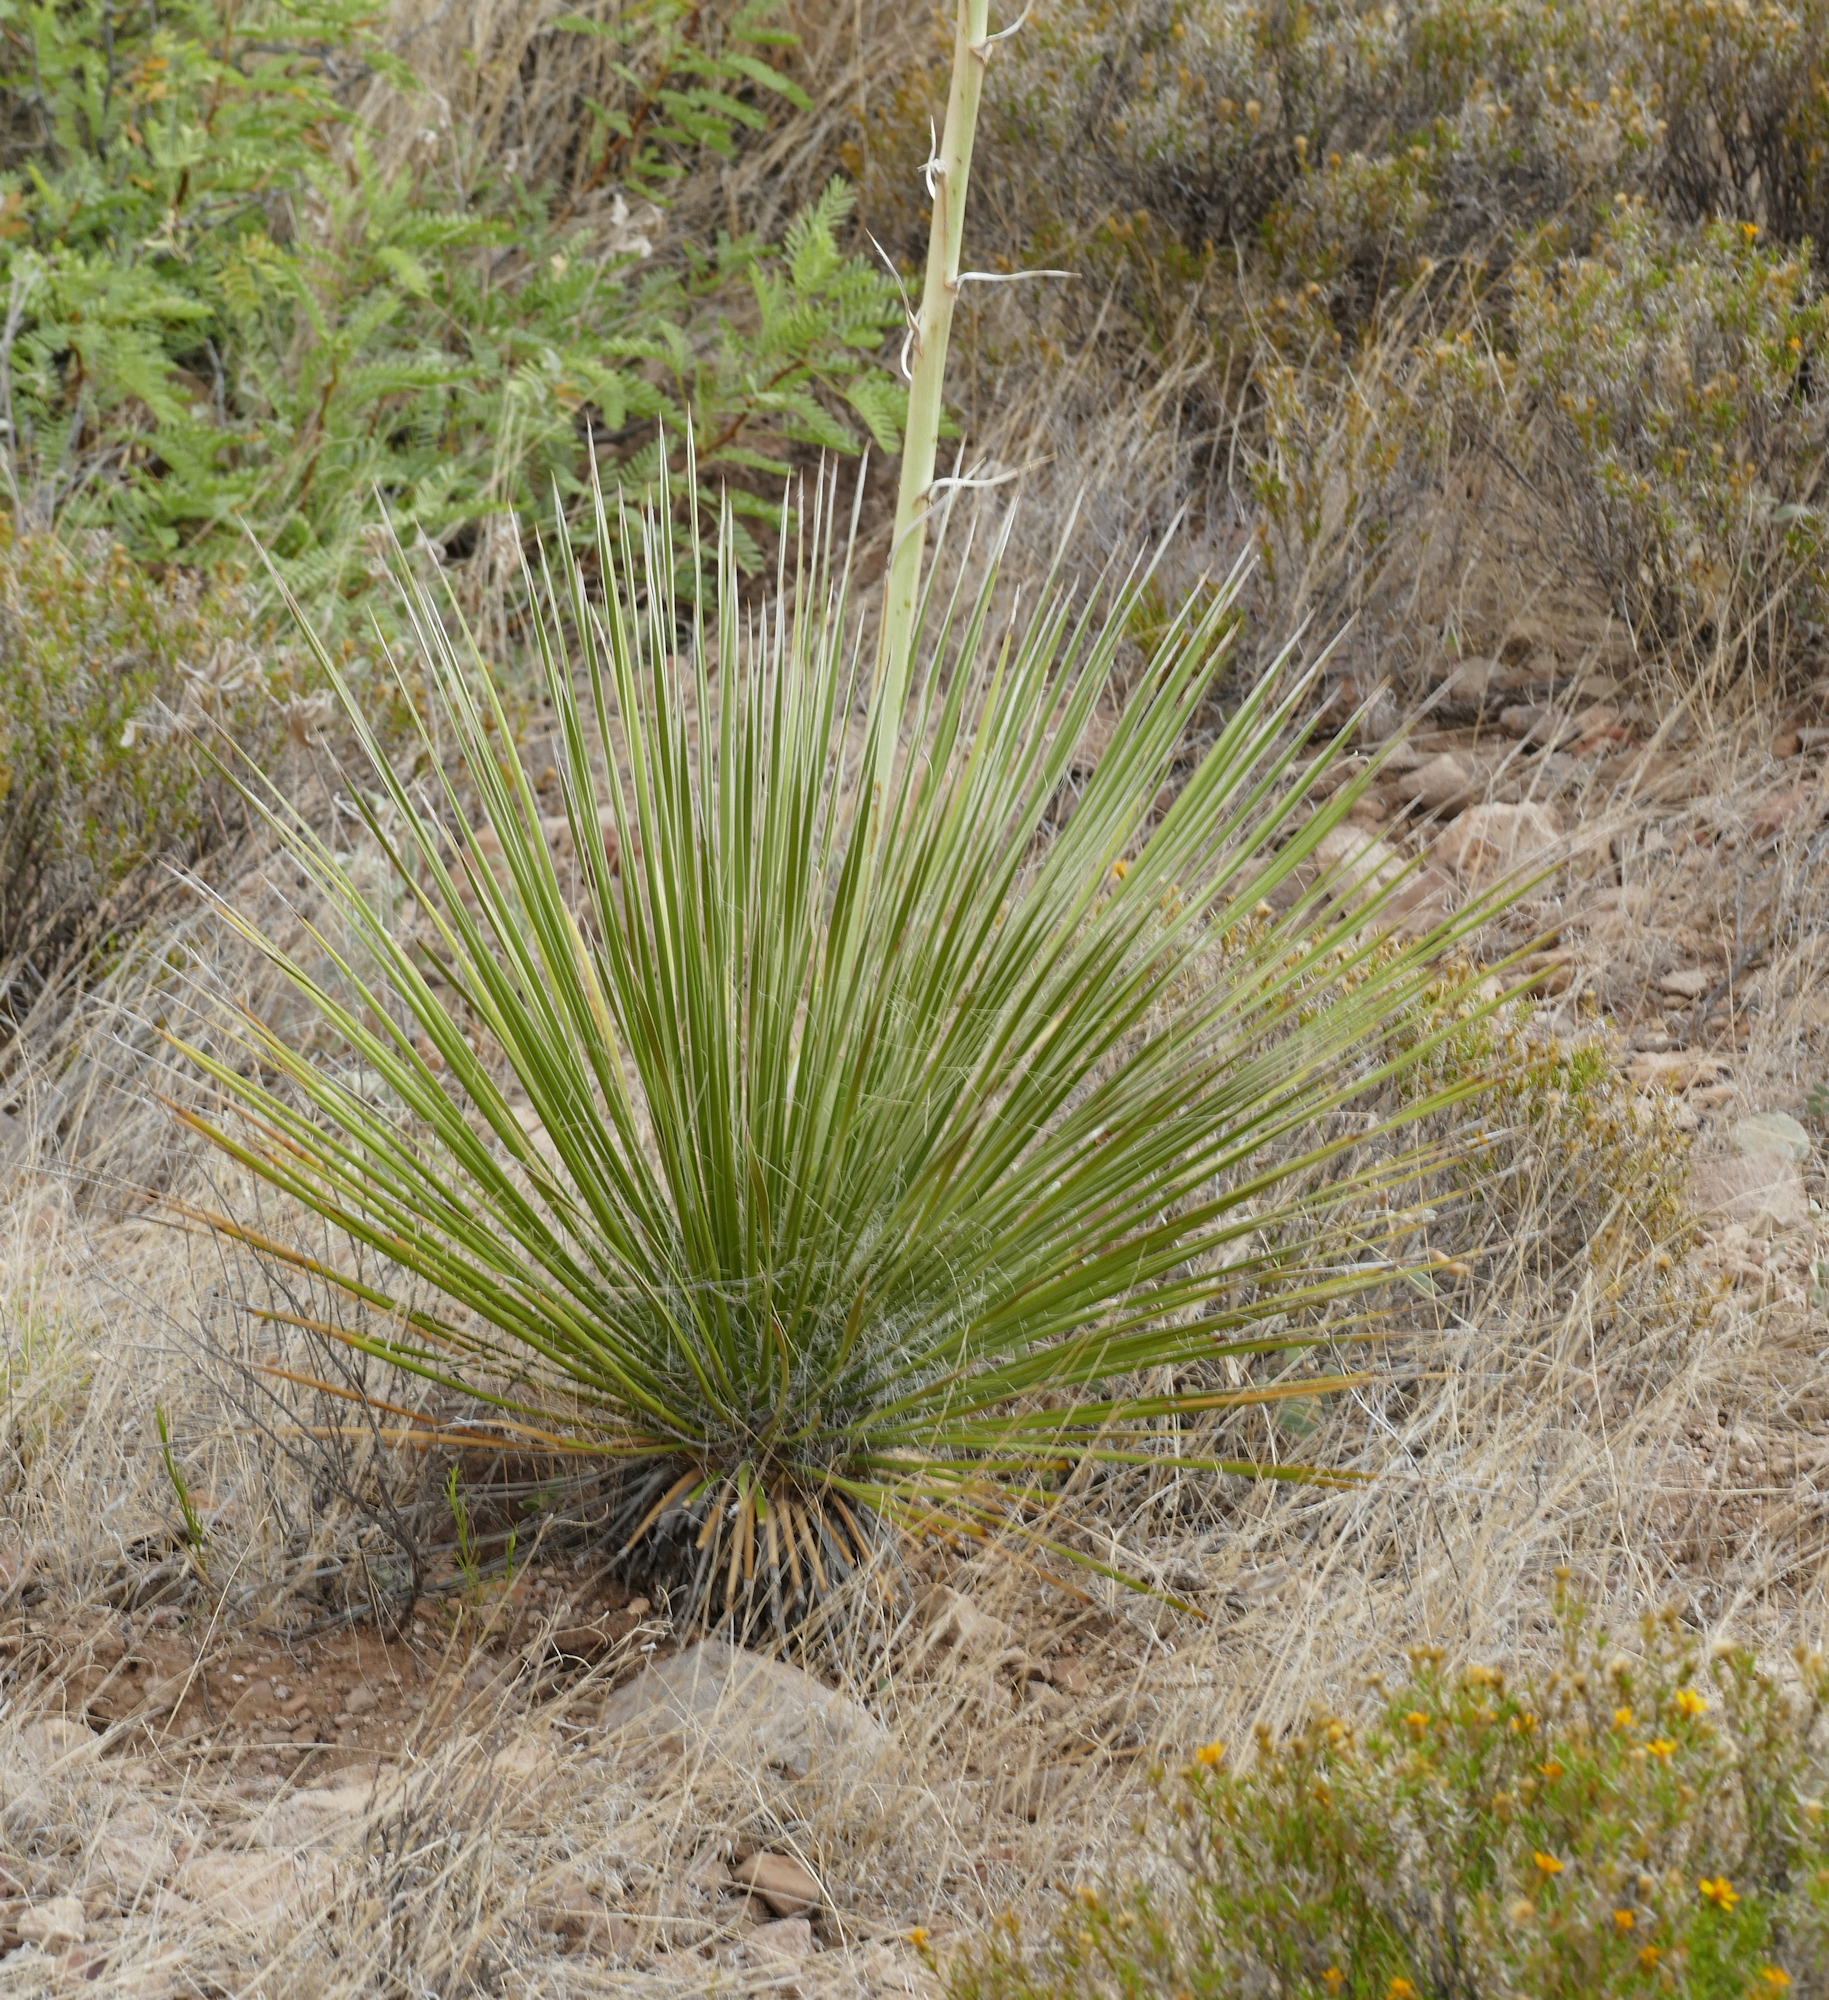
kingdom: Plantae
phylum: Tracheophyta
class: Liliopsida
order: Asparagales
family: Asparagaceae
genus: Yucca
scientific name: Yucca elata
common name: Palmella
